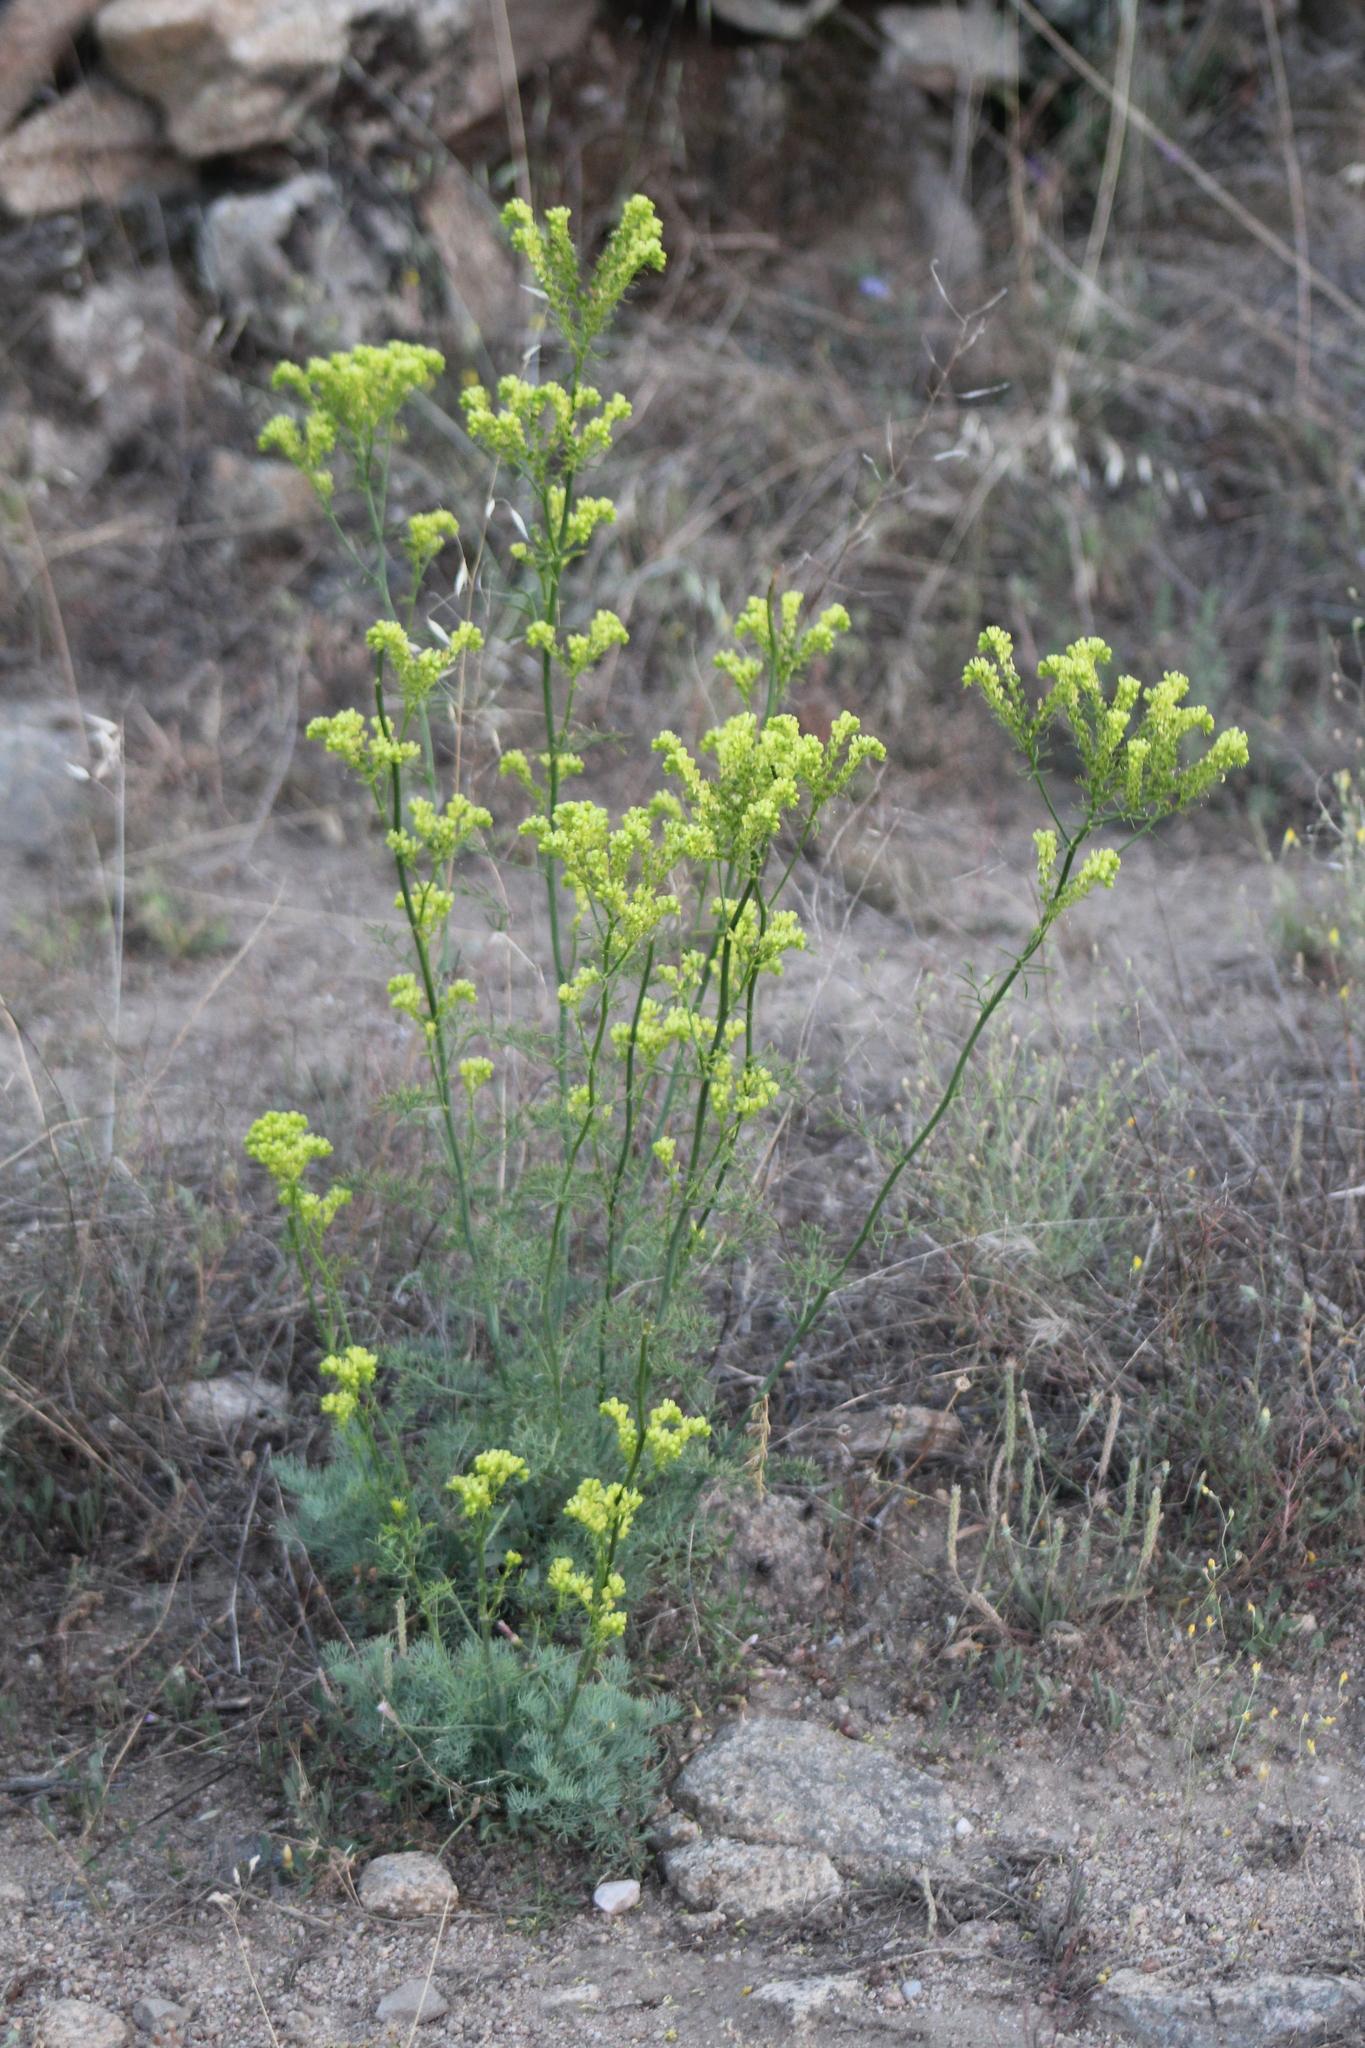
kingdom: Plantae
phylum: Tracheophyta
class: Magnoliopsida
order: Sapindales
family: Rutaceae
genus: Ruta
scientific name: Ruta montana
